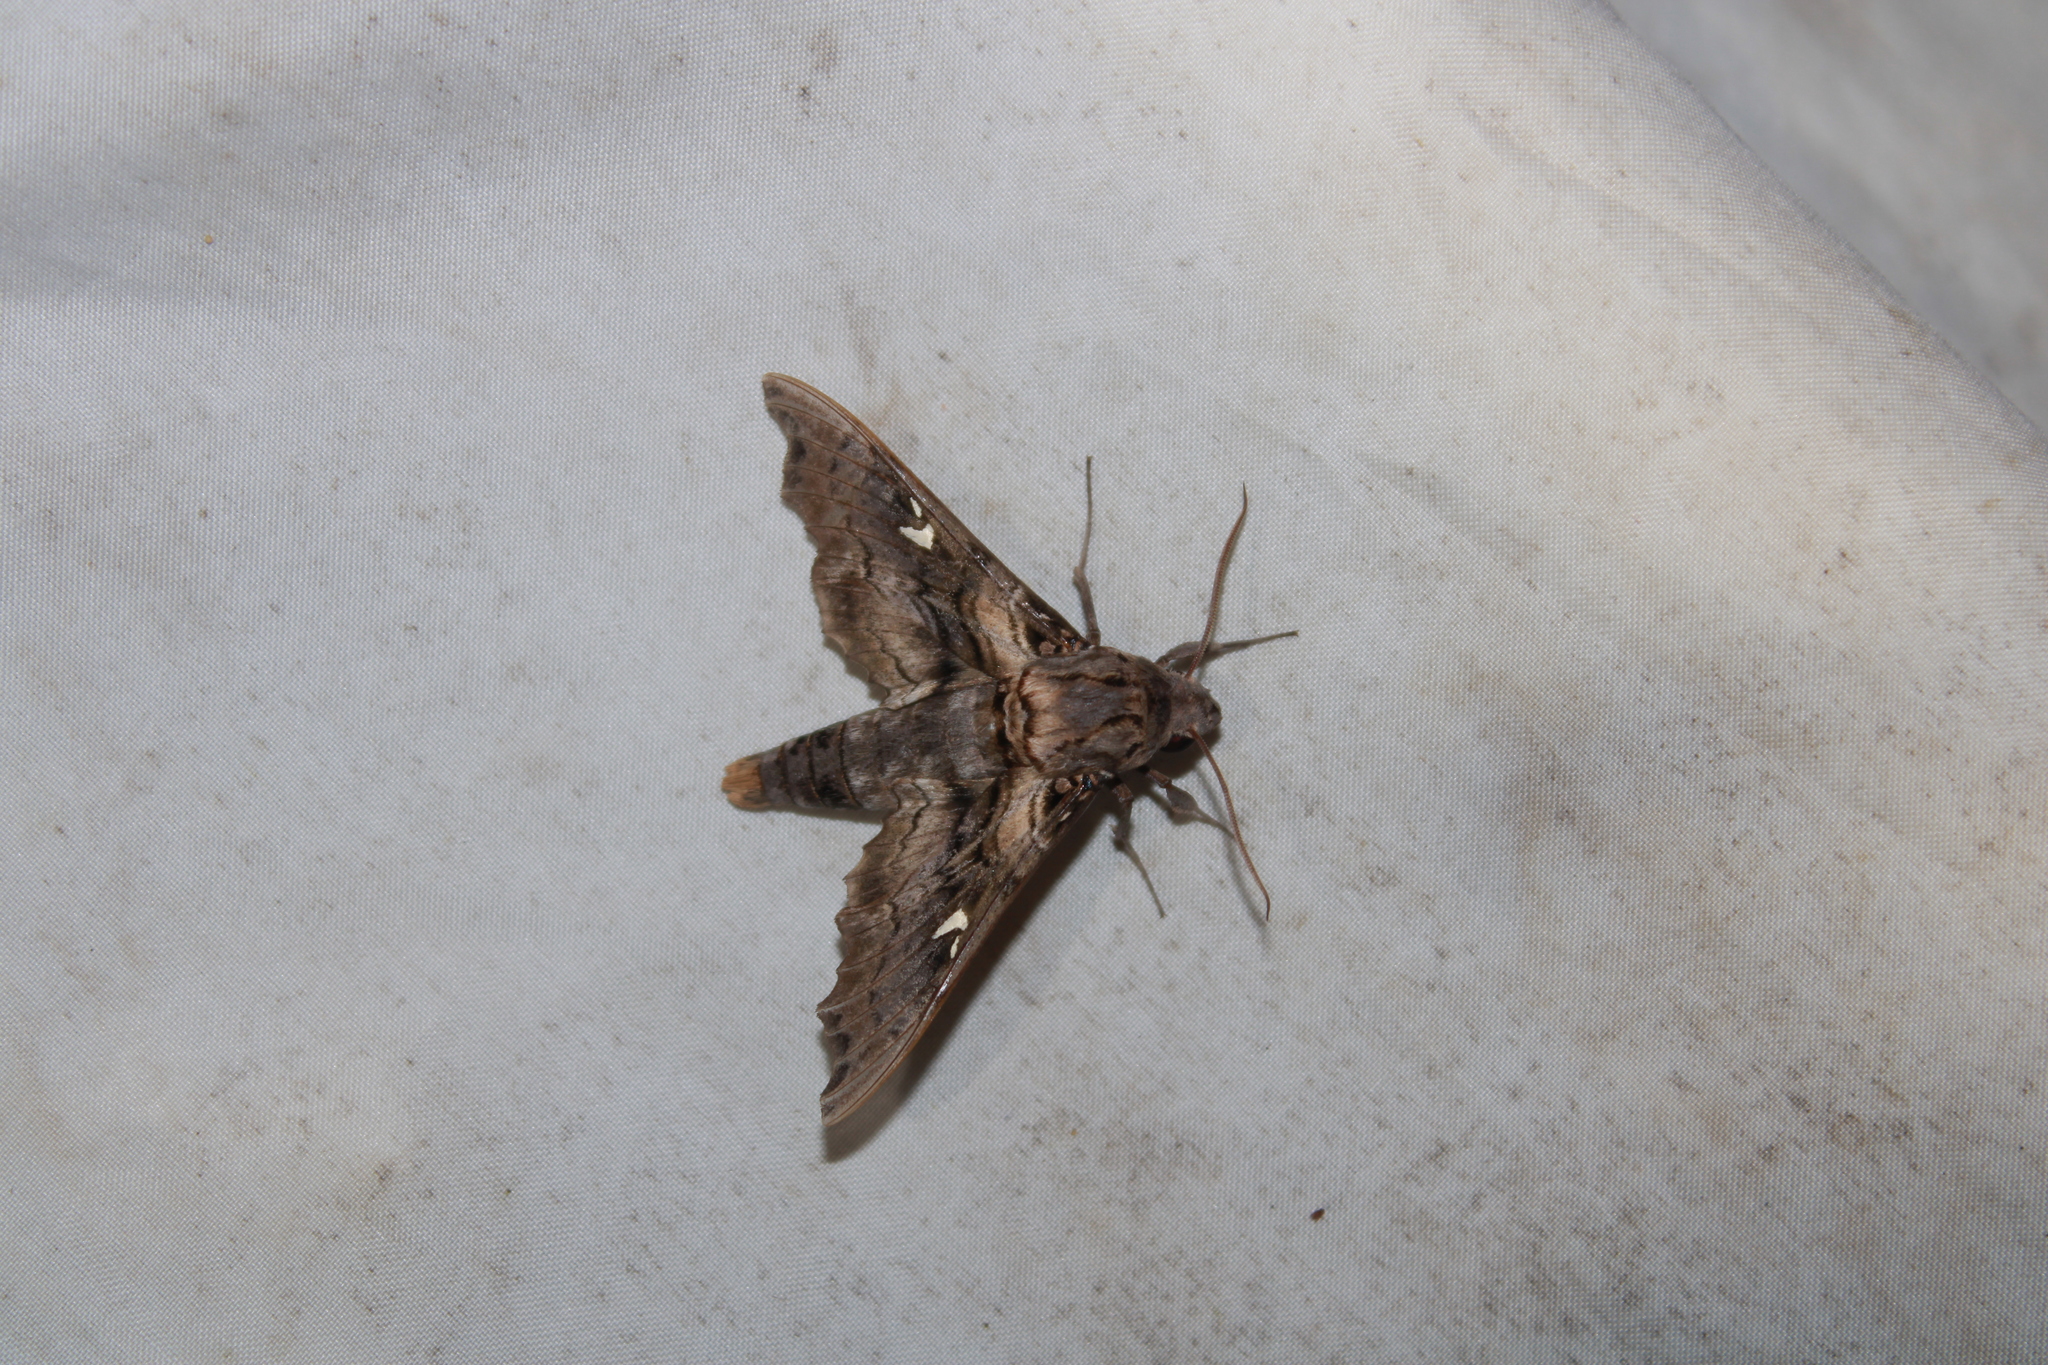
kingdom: Animalia
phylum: Arthropoda
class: Insecta
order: Lepidoptera
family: Sphingidae
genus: Madoryx
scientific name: Madoryx pseudothyreus
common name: False-windowed sphinx
